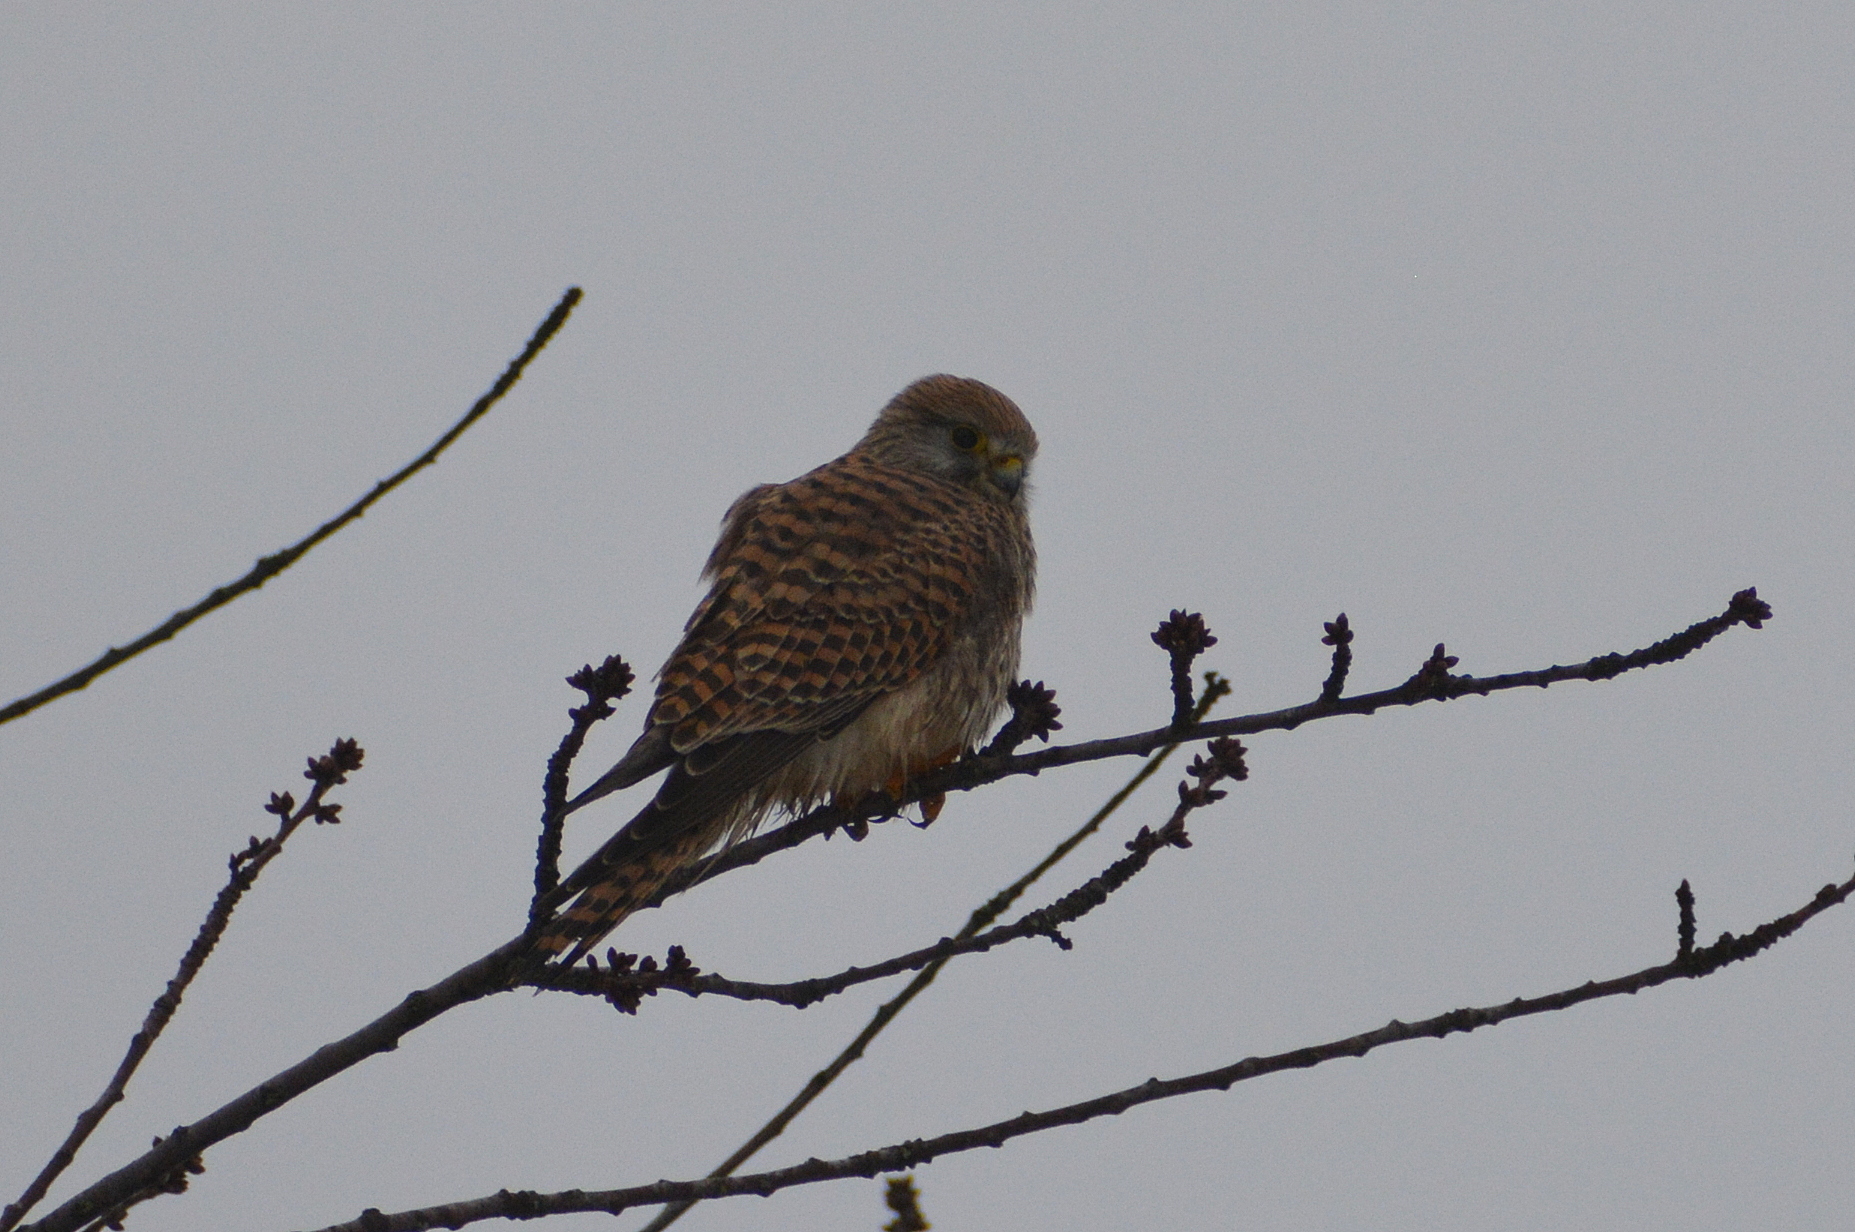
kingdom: Animalia
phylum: Chordata
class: Aves
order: Falconiformes
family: Falconidae
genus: Falco
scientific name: Falco tinnunculus
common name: Common kestrel
